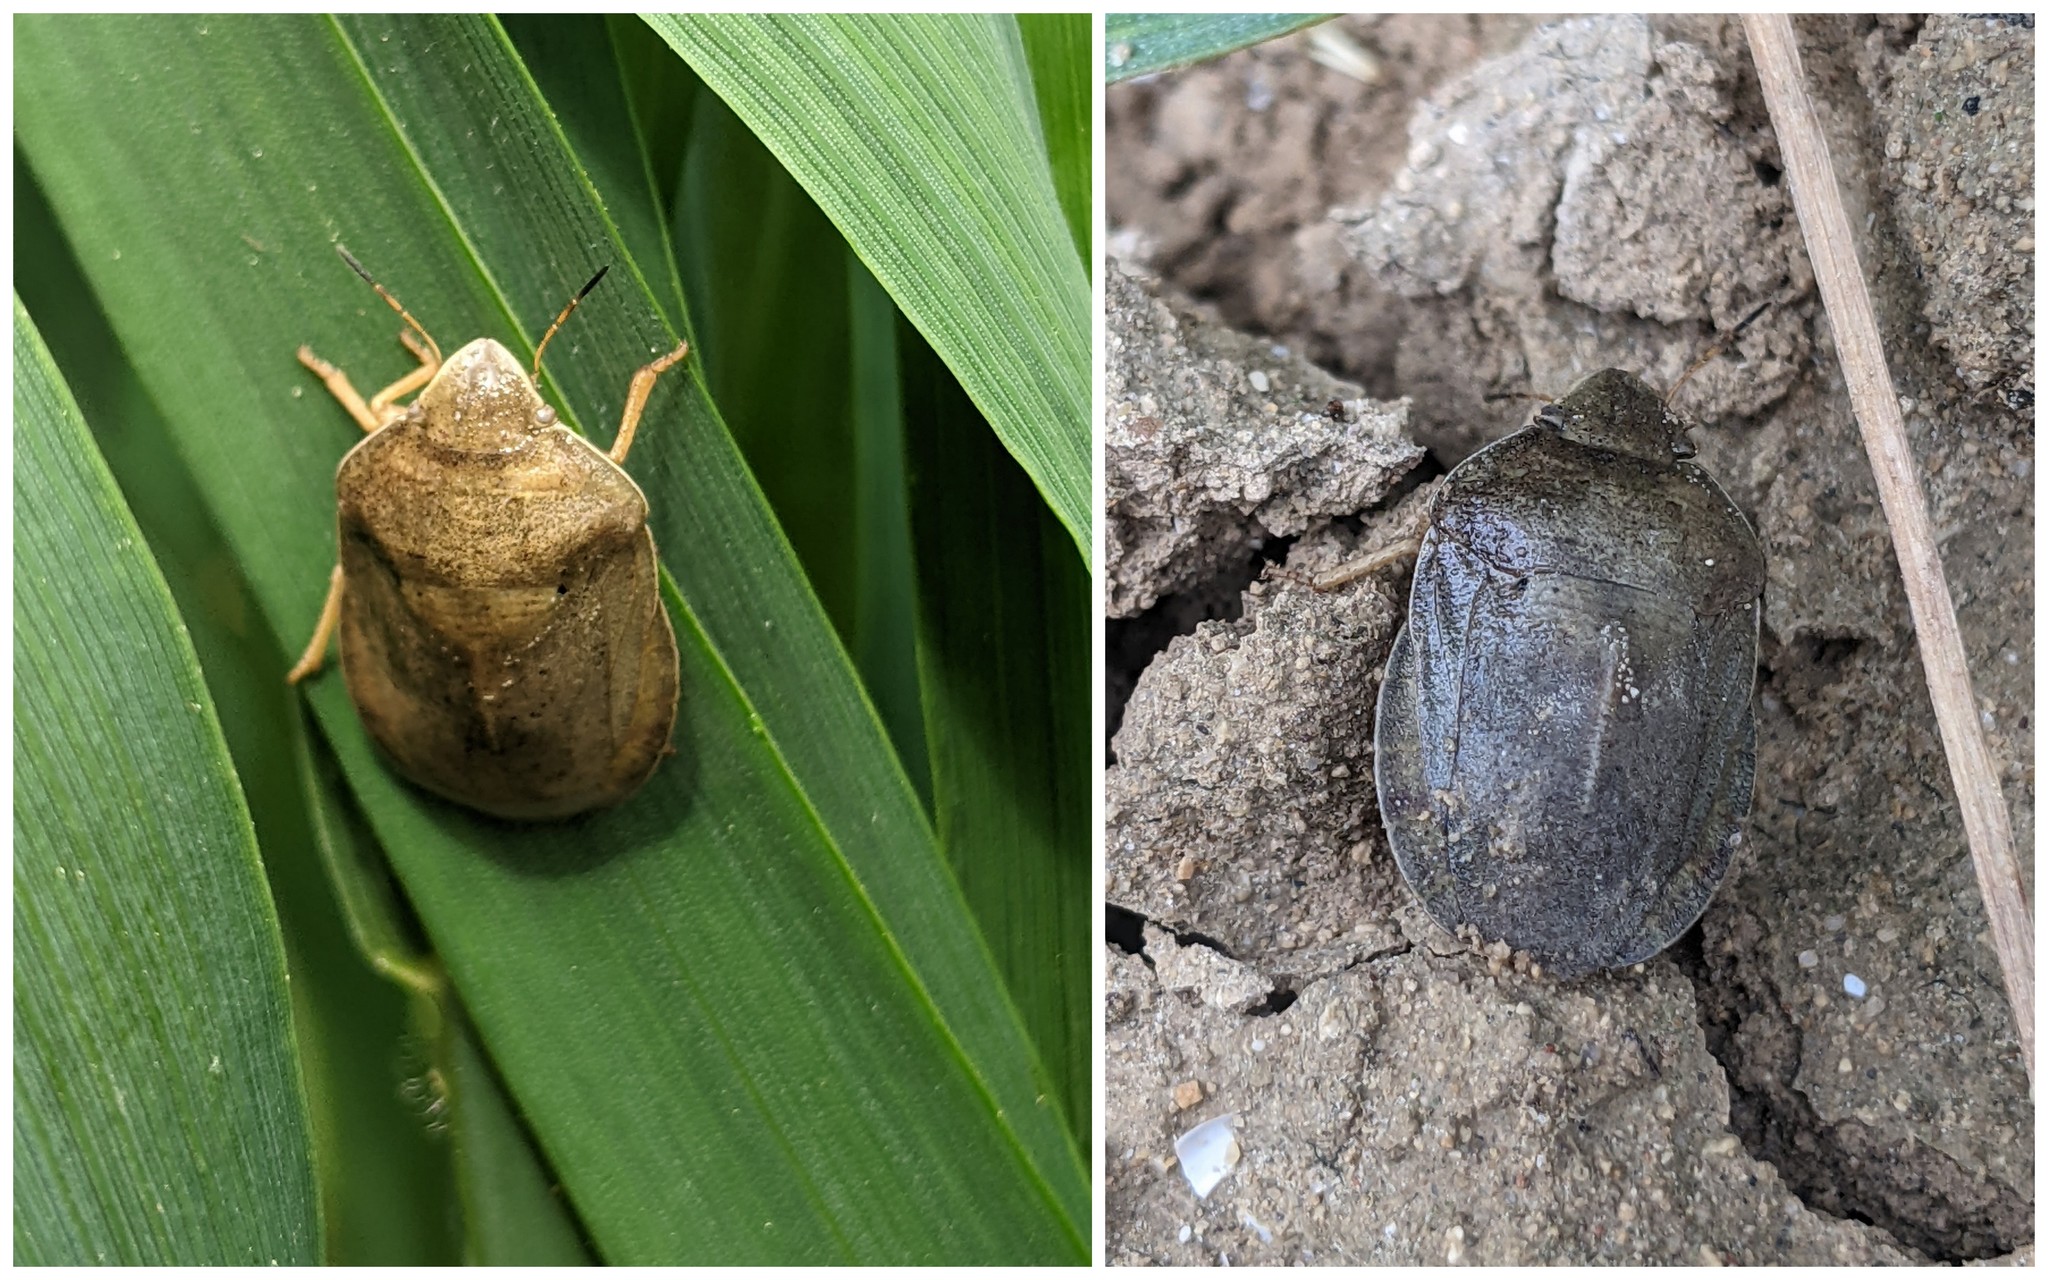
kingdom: Animalia
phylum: Arthropoda
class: Insecta
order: Hemiptera
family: Scutelleridae
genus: Eurygaster
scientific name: Eurygaster austriaca
